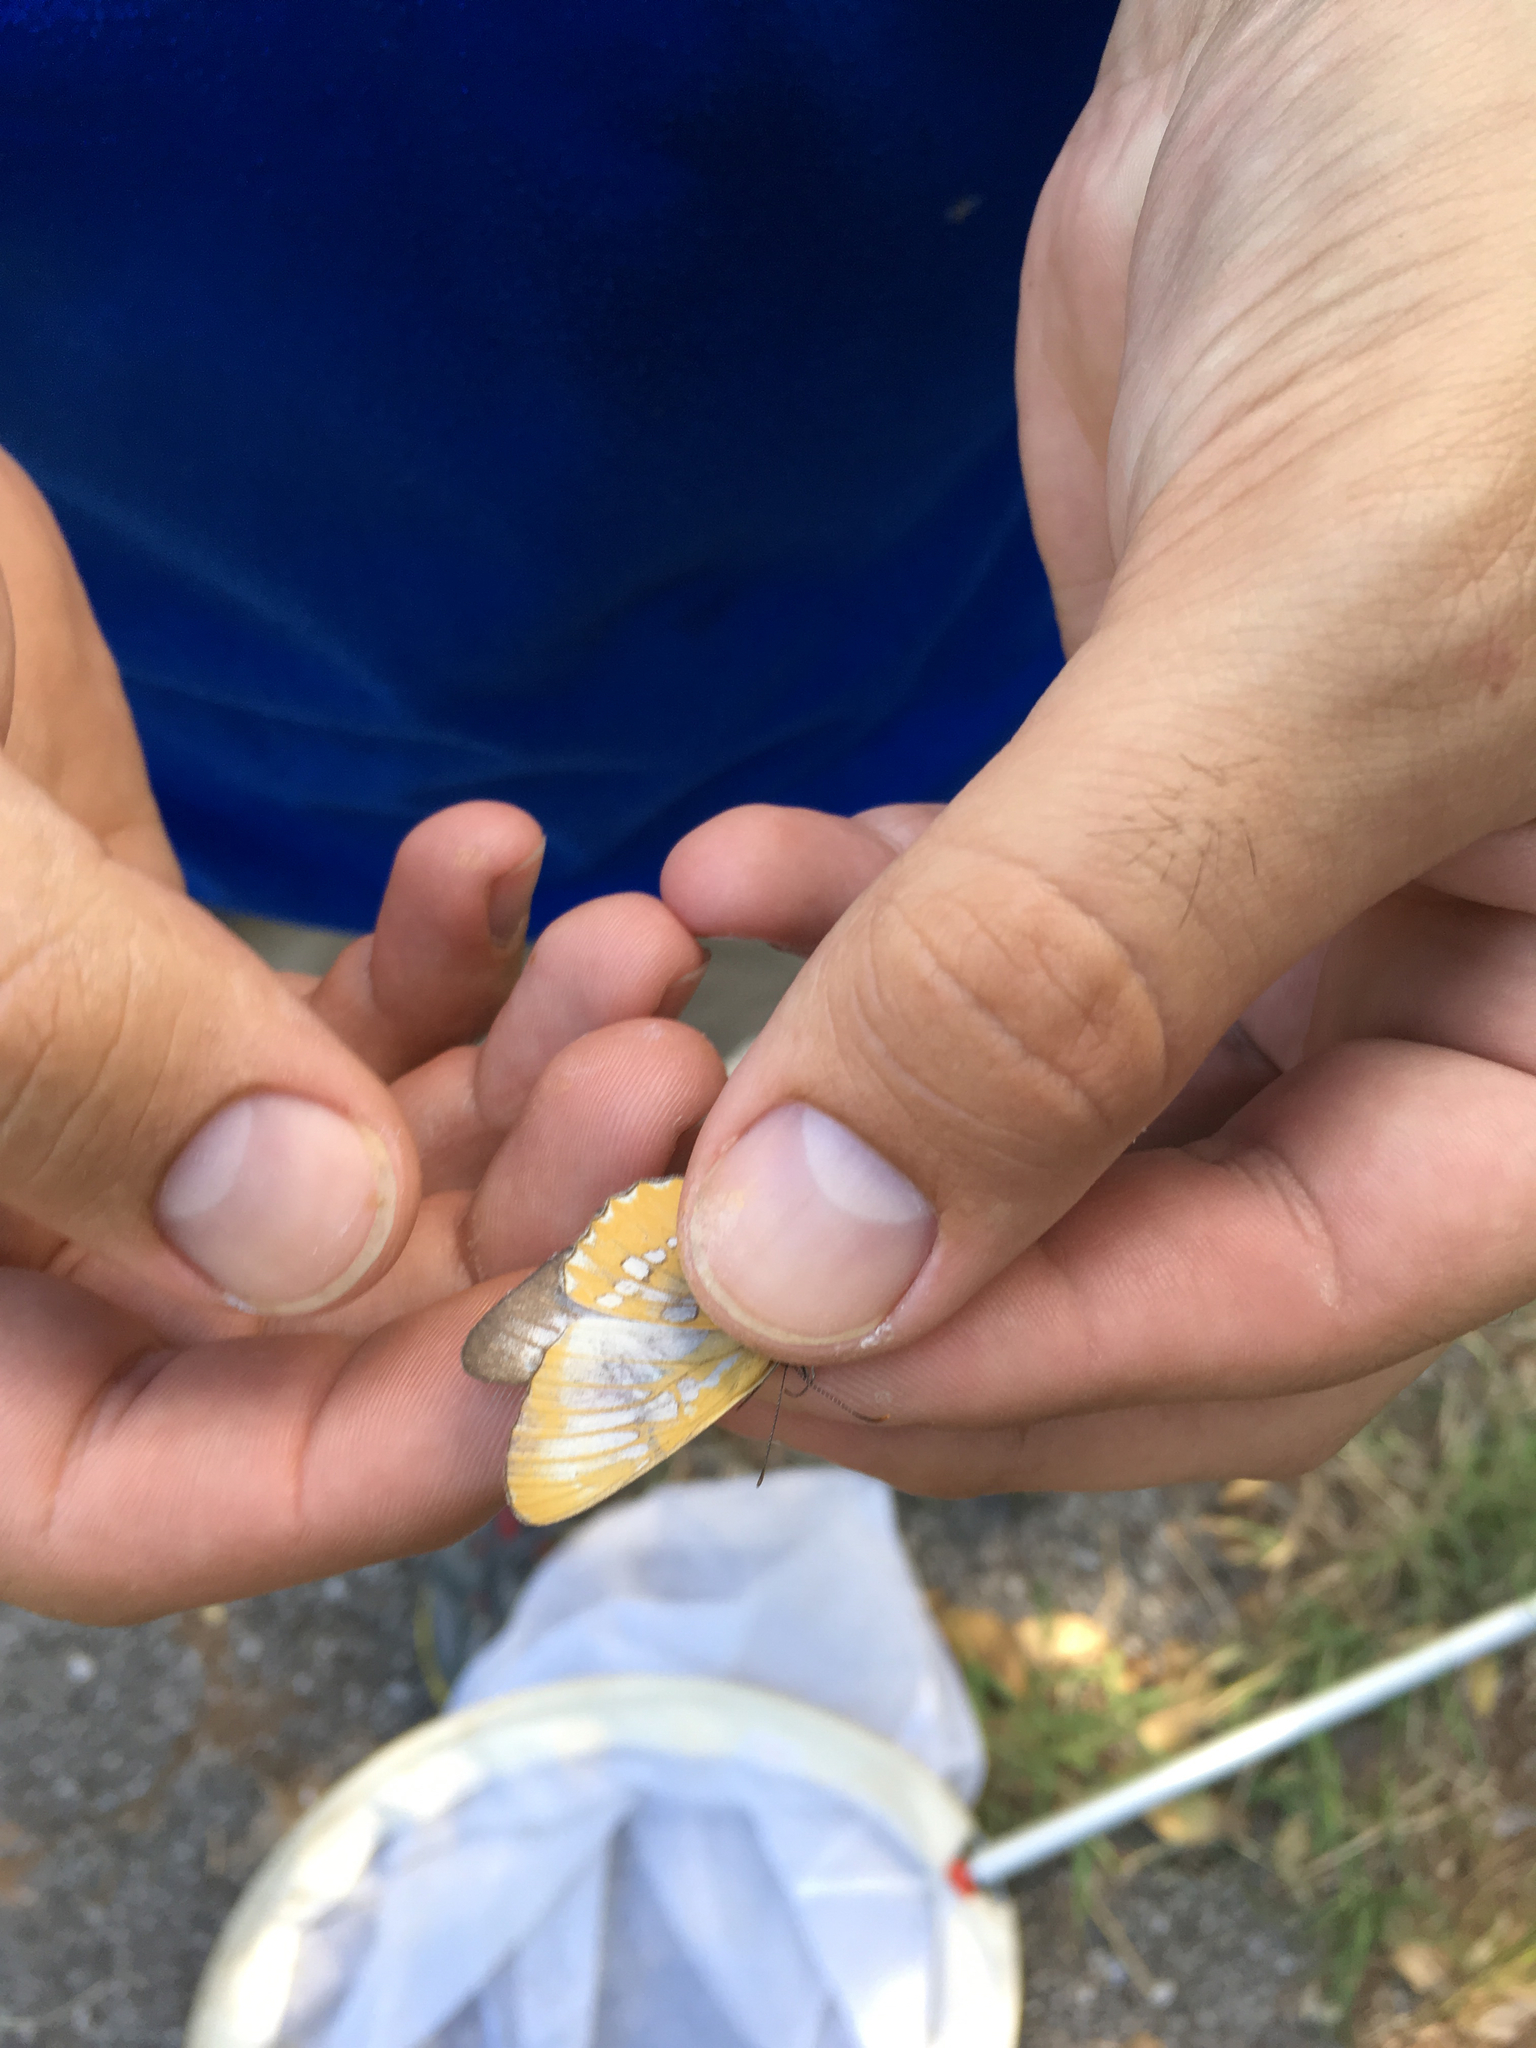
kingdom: Animalia
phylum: Arthropoda
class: Insecta
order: Lepidoptera
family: Nymphalidae
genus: Mestra
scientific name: Mestra amymone
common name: Common mestra
